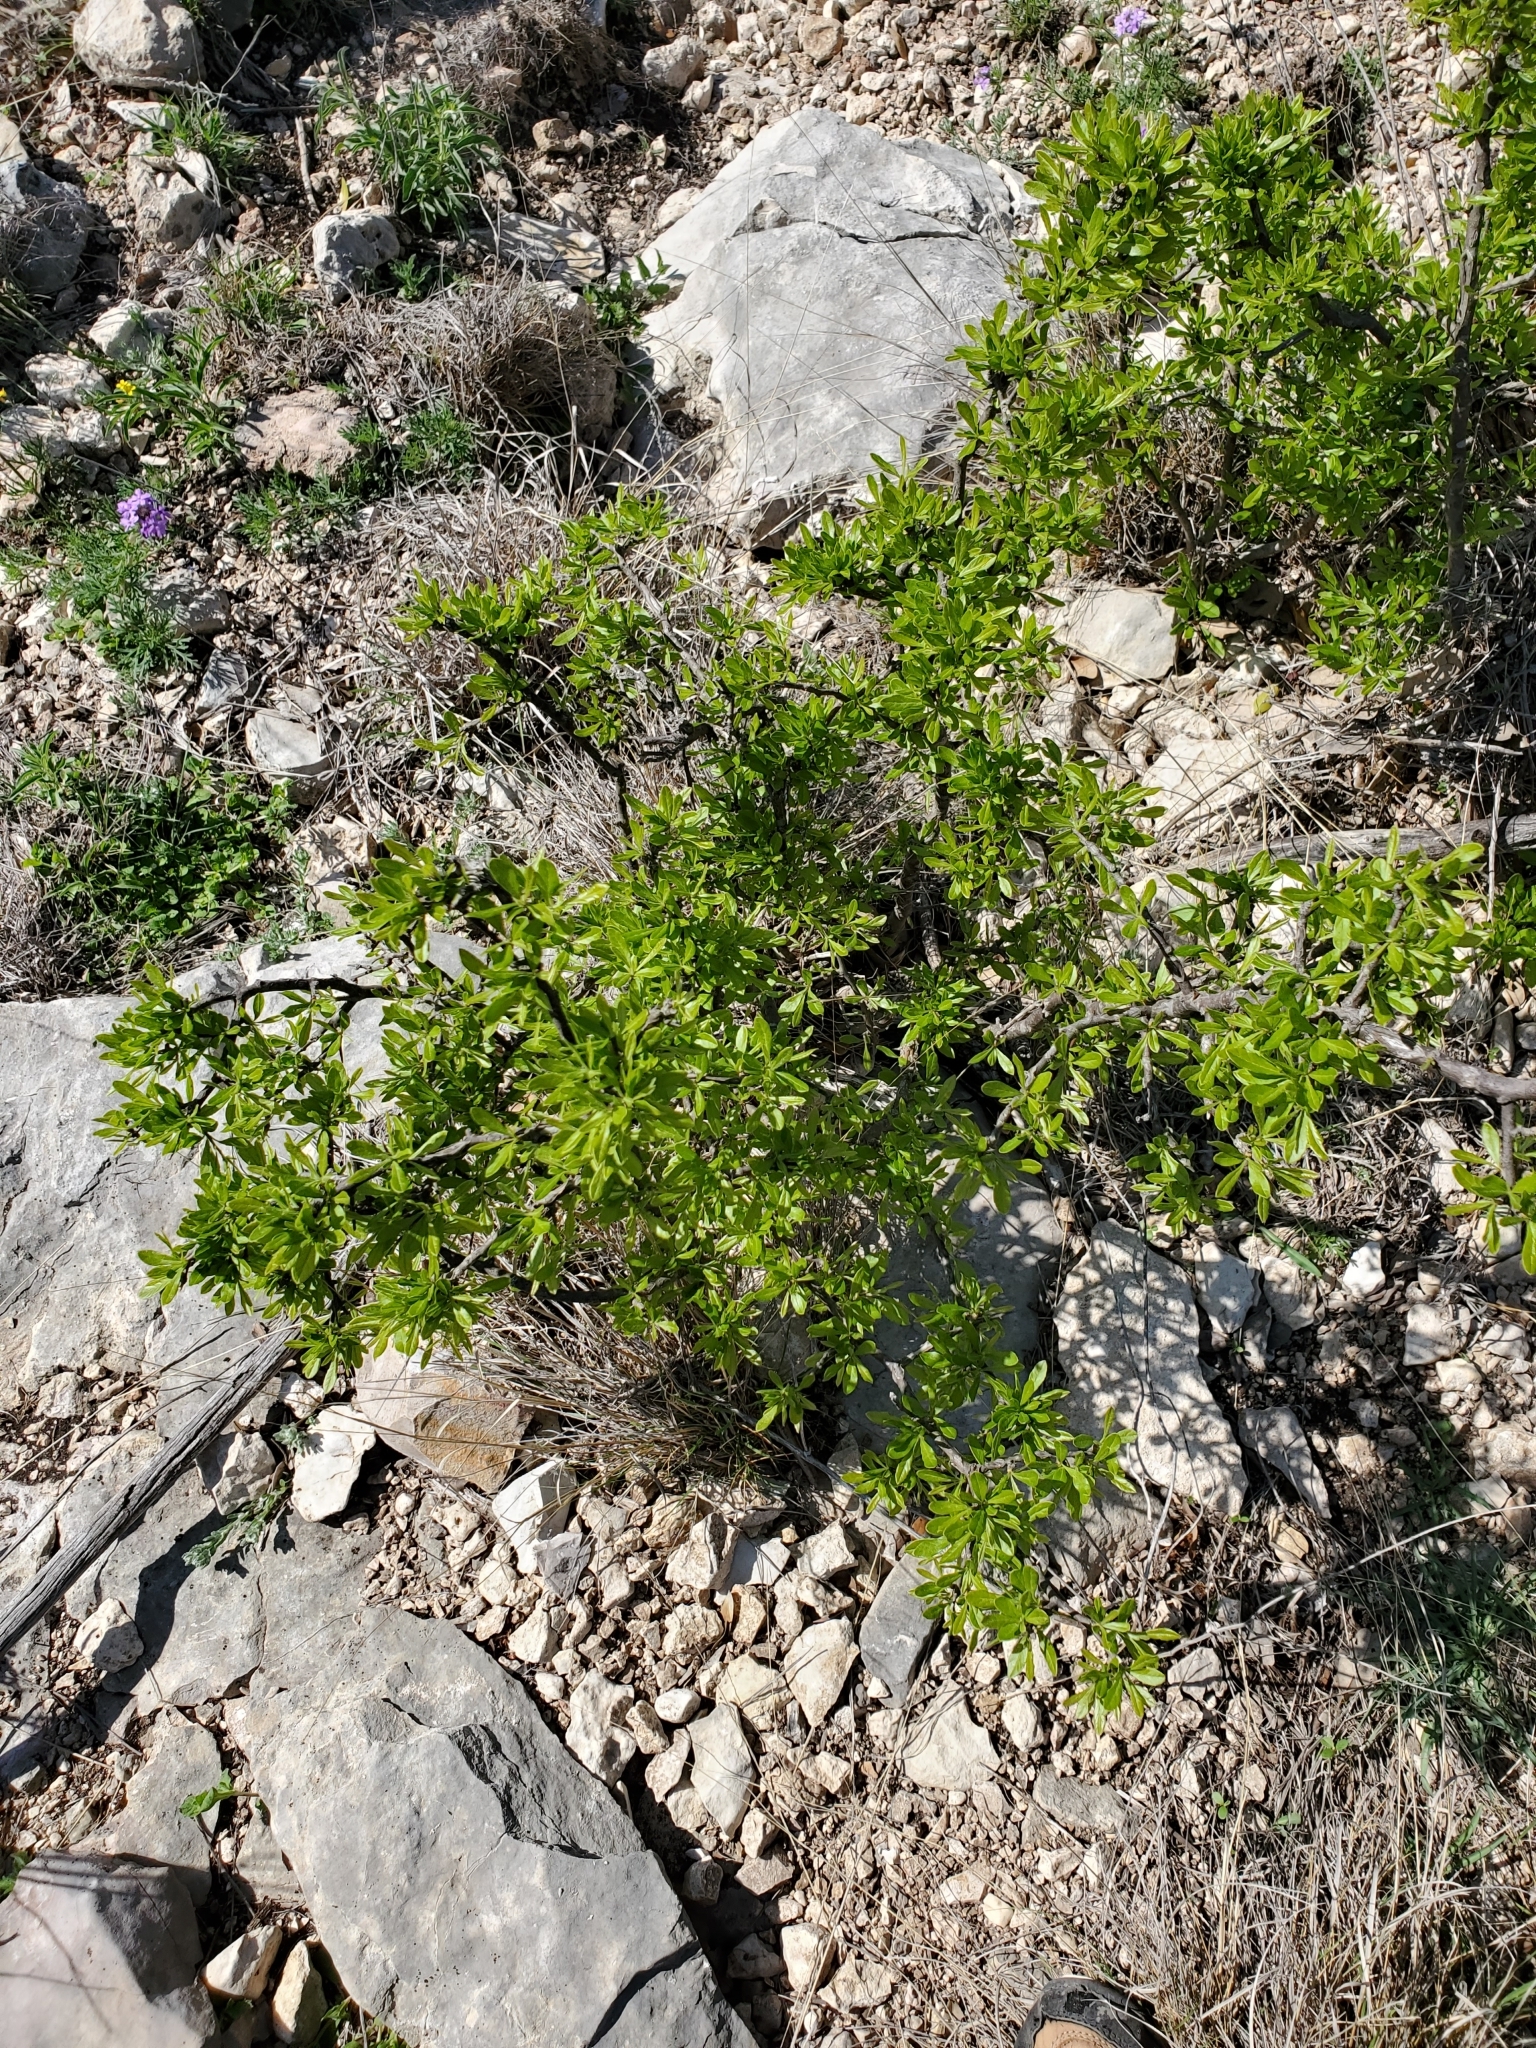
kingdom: Plantae
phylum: Tracheophyta
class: Magnoliopsida
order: Ericales
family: Sapotaceae
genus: Sideroxylon
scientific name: Sideroxylon lanuginosum
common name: Chittamwood
